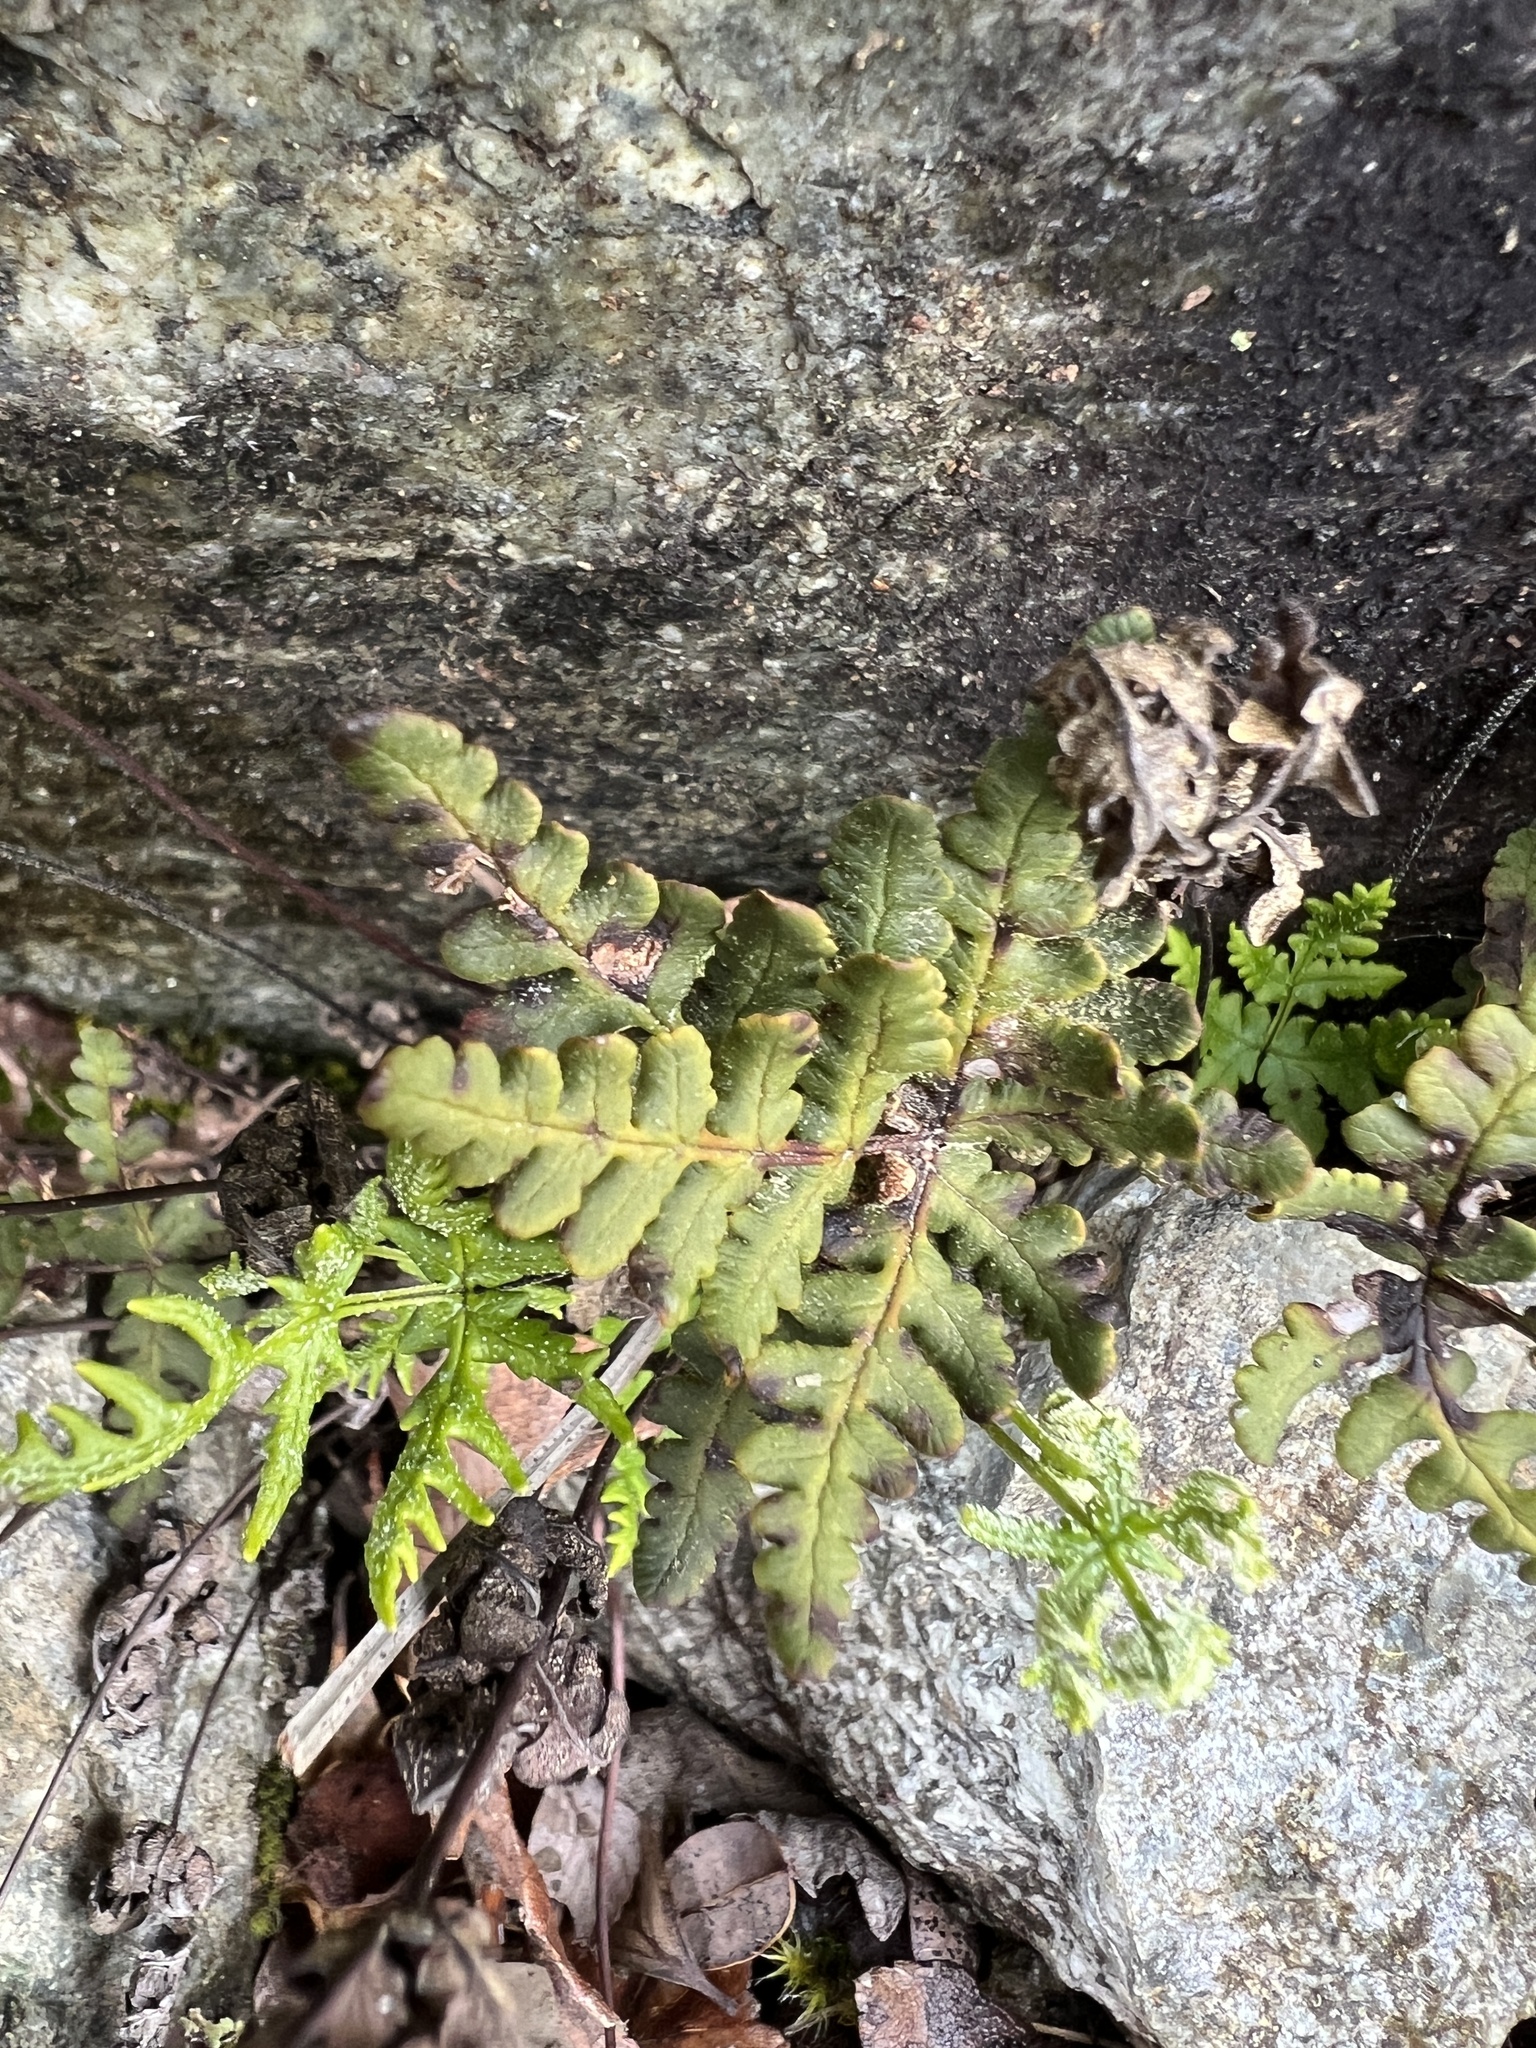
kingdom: Plantae
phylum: Tracheophyta
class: Polypodiopsida
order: Polypodiales
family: Pteridaceae
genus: Pentagramma
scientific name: Pentagramma triangularis
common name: Gold fern
